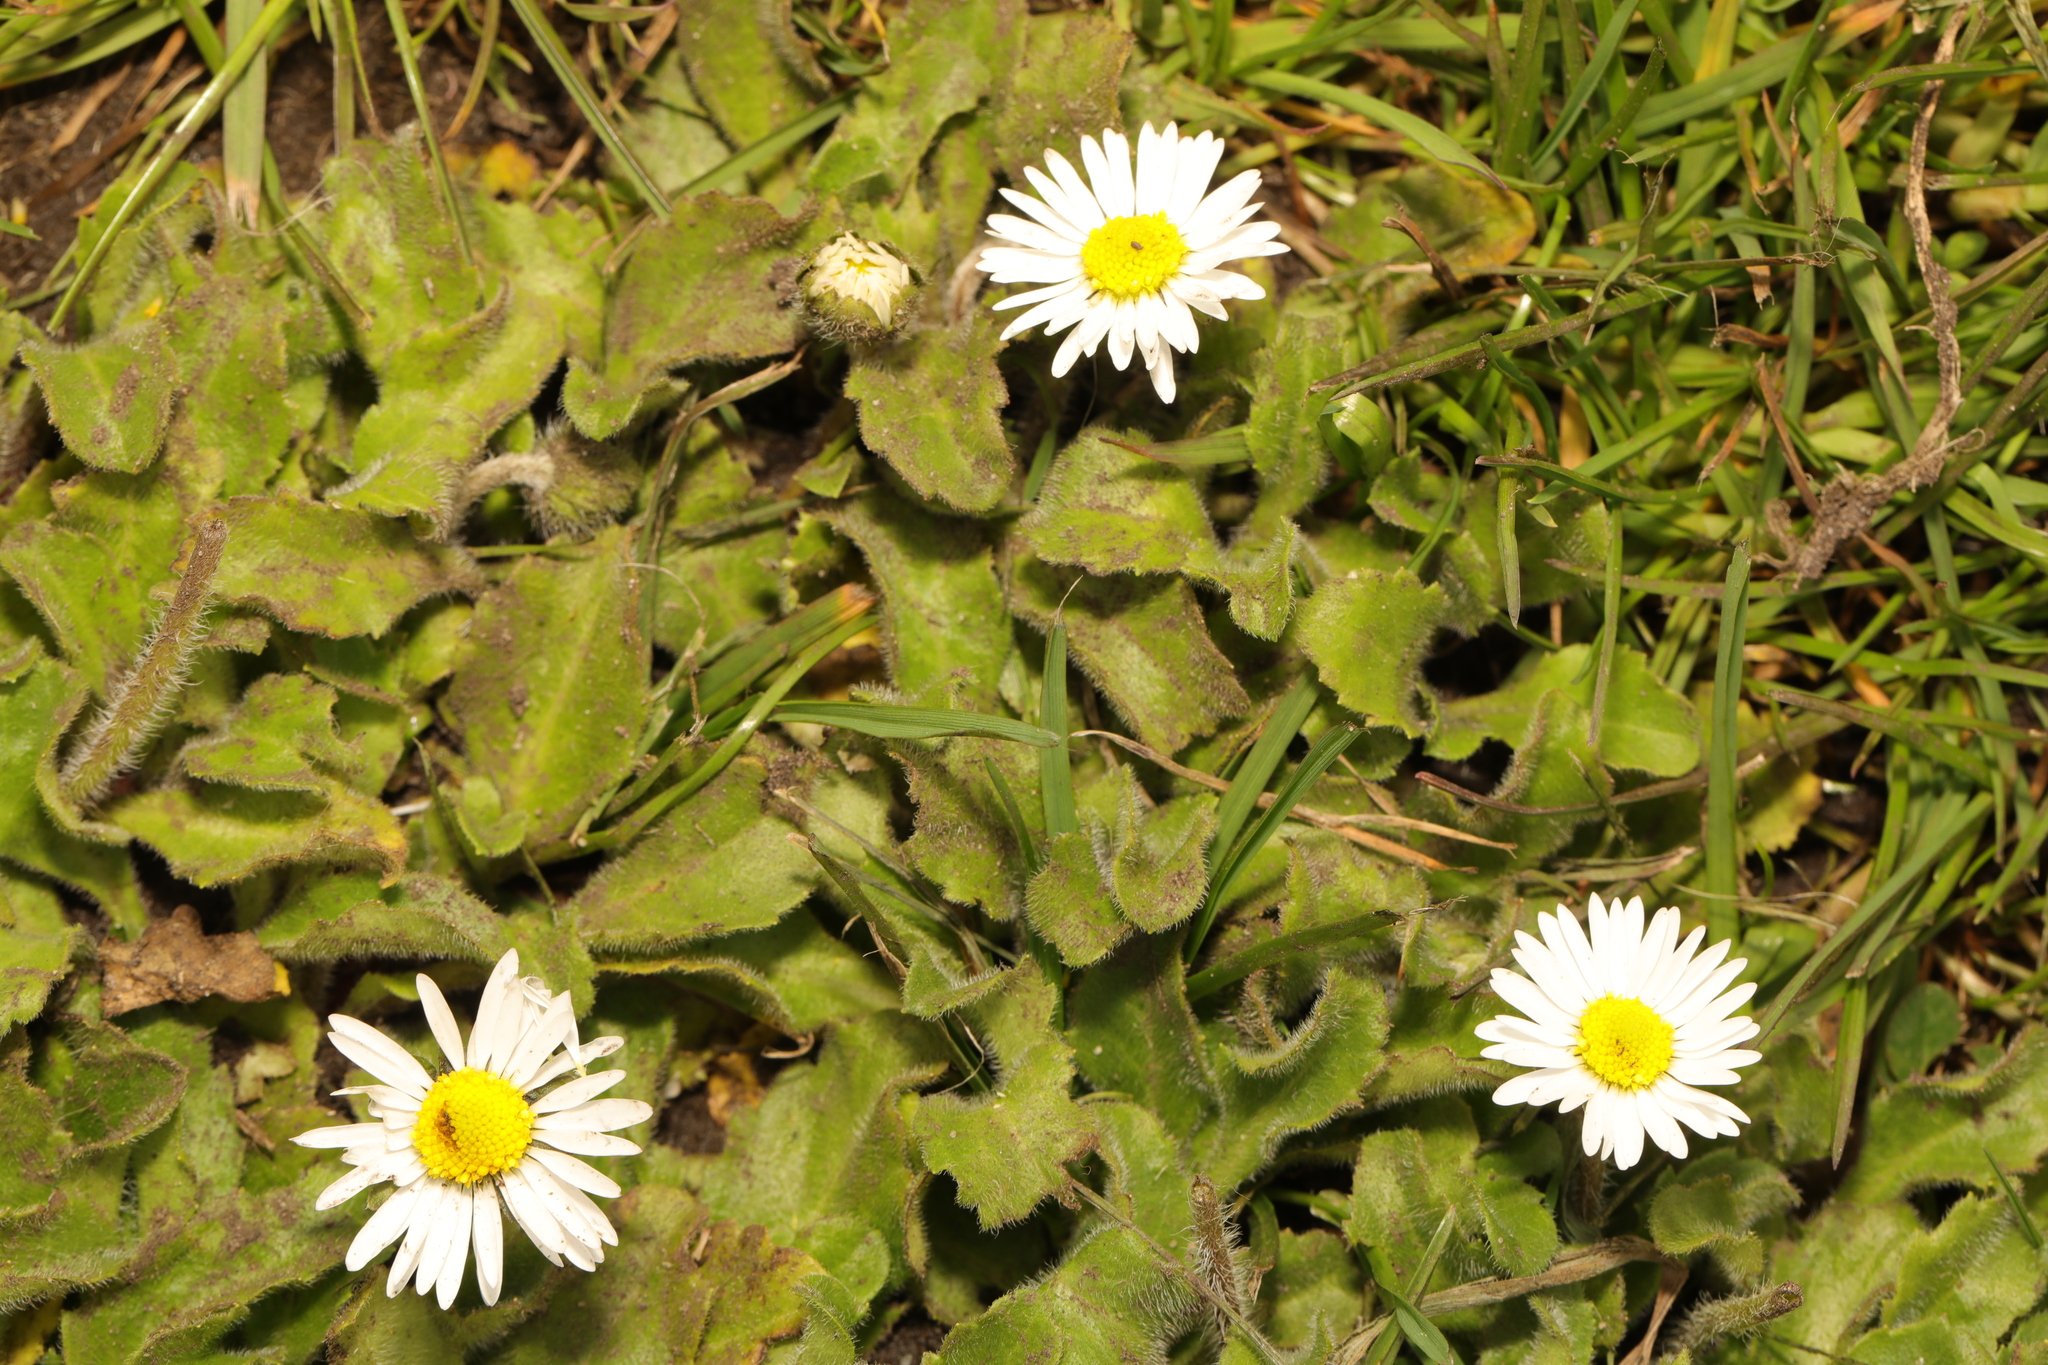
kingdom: Plantae
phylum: Tracheophyta
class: Magnoliopsida
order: Asterales
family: Asteraceae
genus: Bellis
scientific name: Bellis perennis
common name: Lawndaisy
